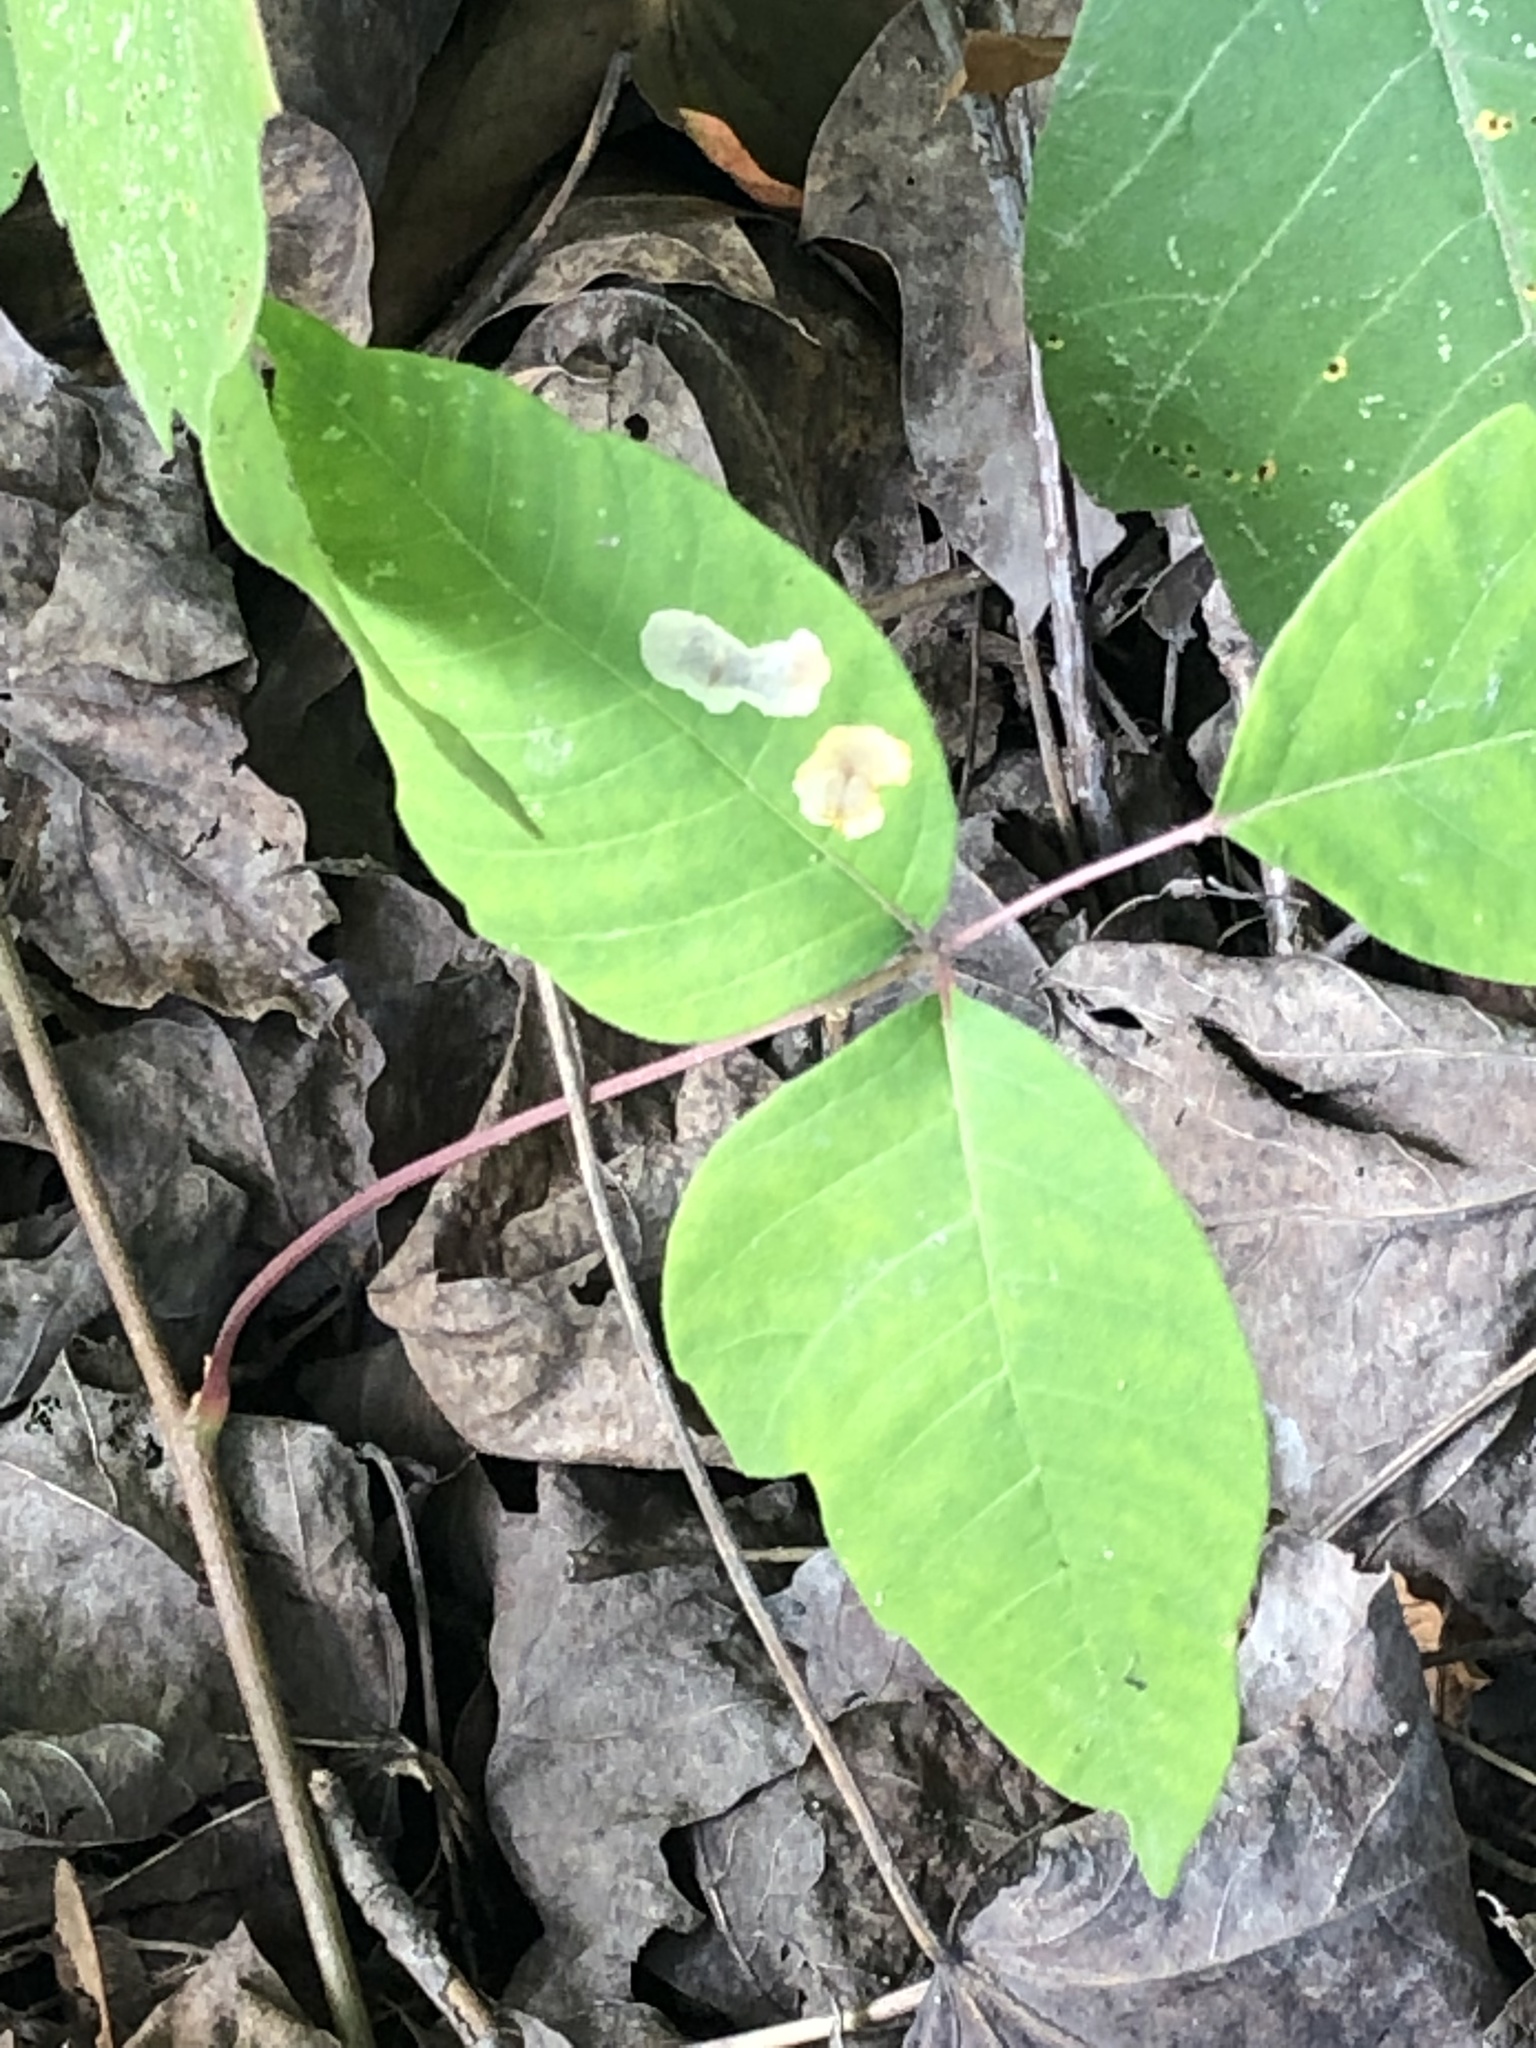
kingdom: Animalia
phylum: Arthropoda
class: Insecta
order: Lepidoptera
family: Gracillariidae
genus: Cameraria
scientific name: Cameraria guttifinitella
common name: Poison ivy leaf-miner moth
